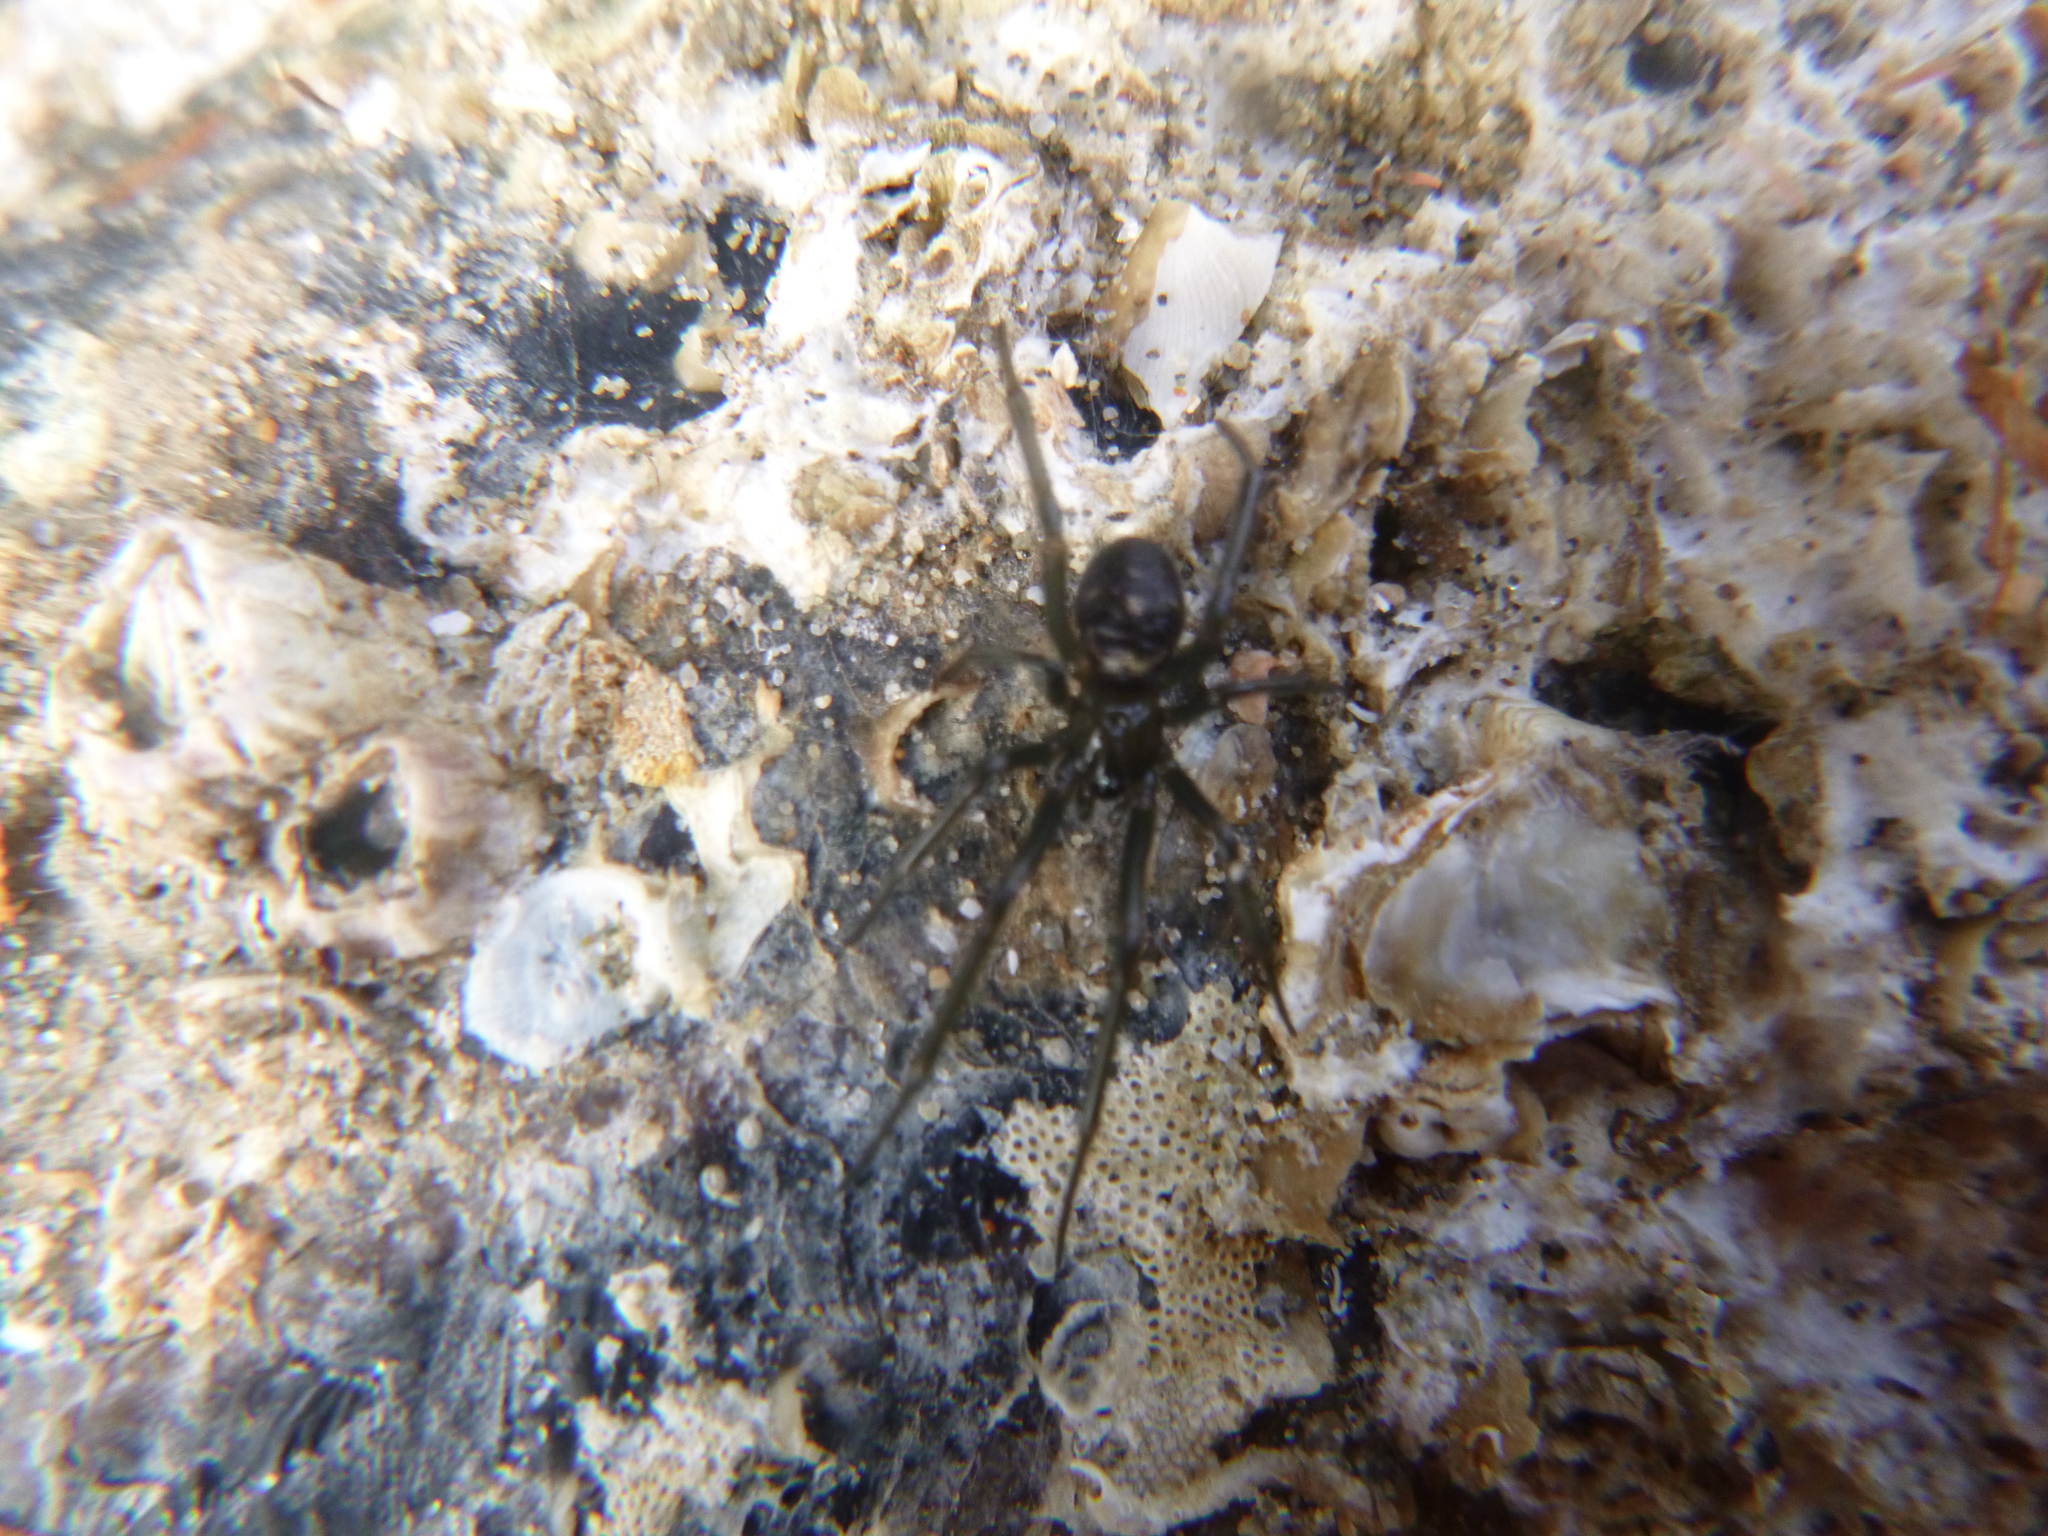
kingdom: Animalia
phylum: Arthropoda
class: Arachnida
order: Araneae
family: Theridiidae
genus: Steatoda
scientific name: Steatoda capensis
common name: Cobweb weaver
